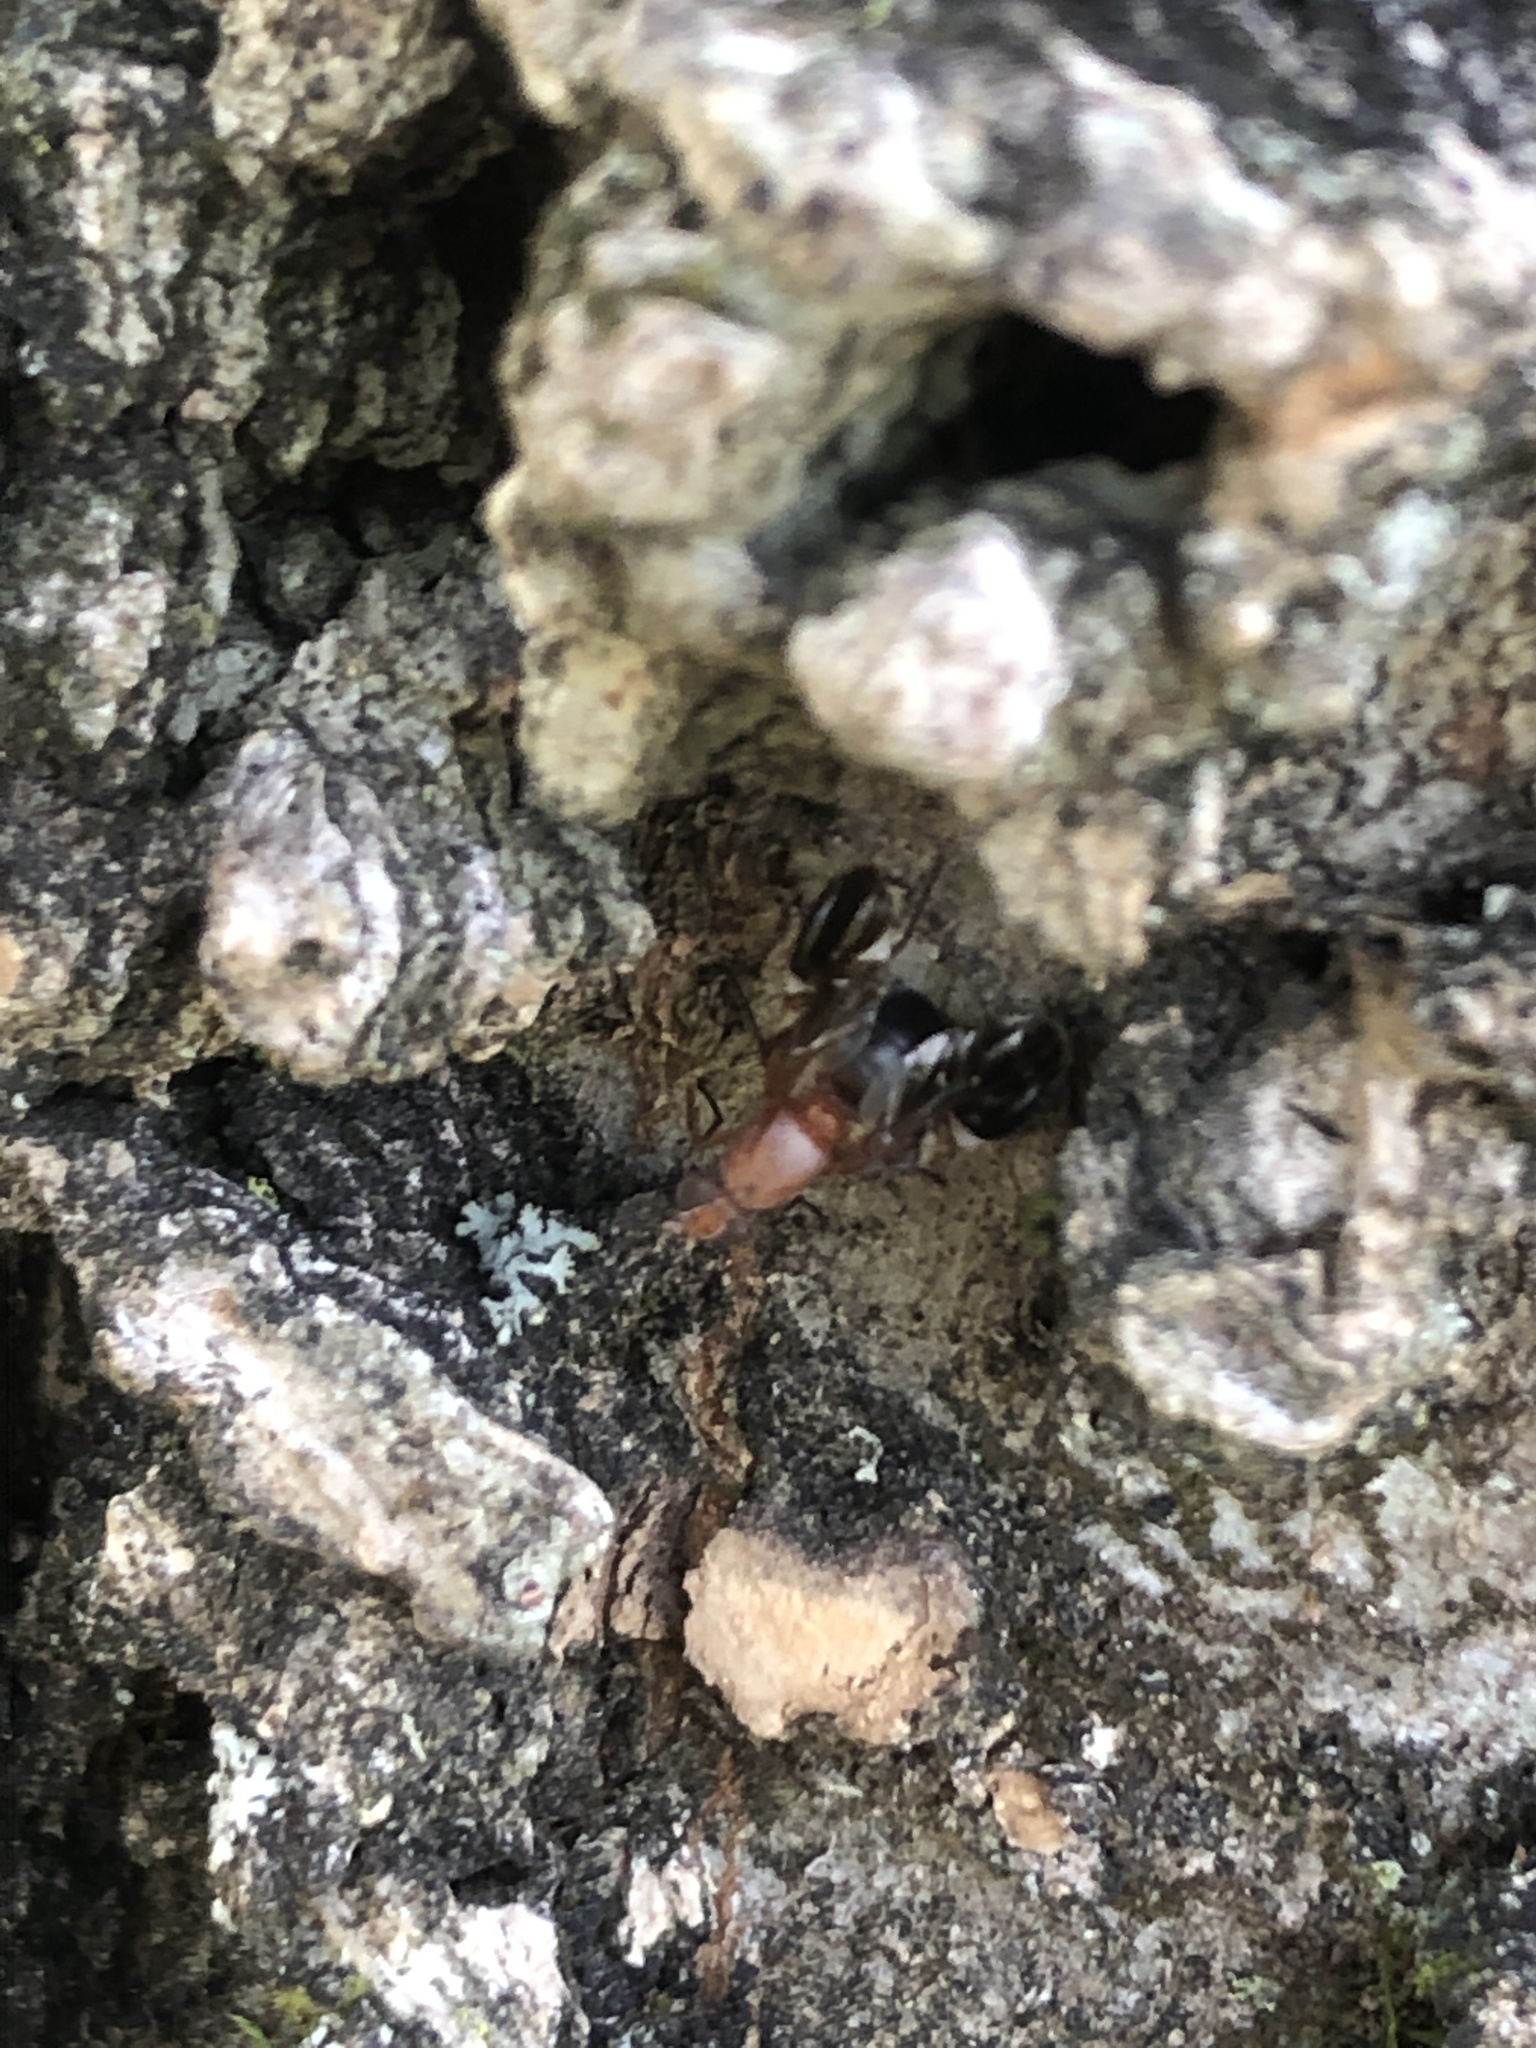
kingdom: Animalia
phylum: Arthropoda
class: Insecta
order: Diptera
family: Ulidiidae
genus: Delphinia
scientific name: Delphinia picta
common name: Common picture-winged fly
